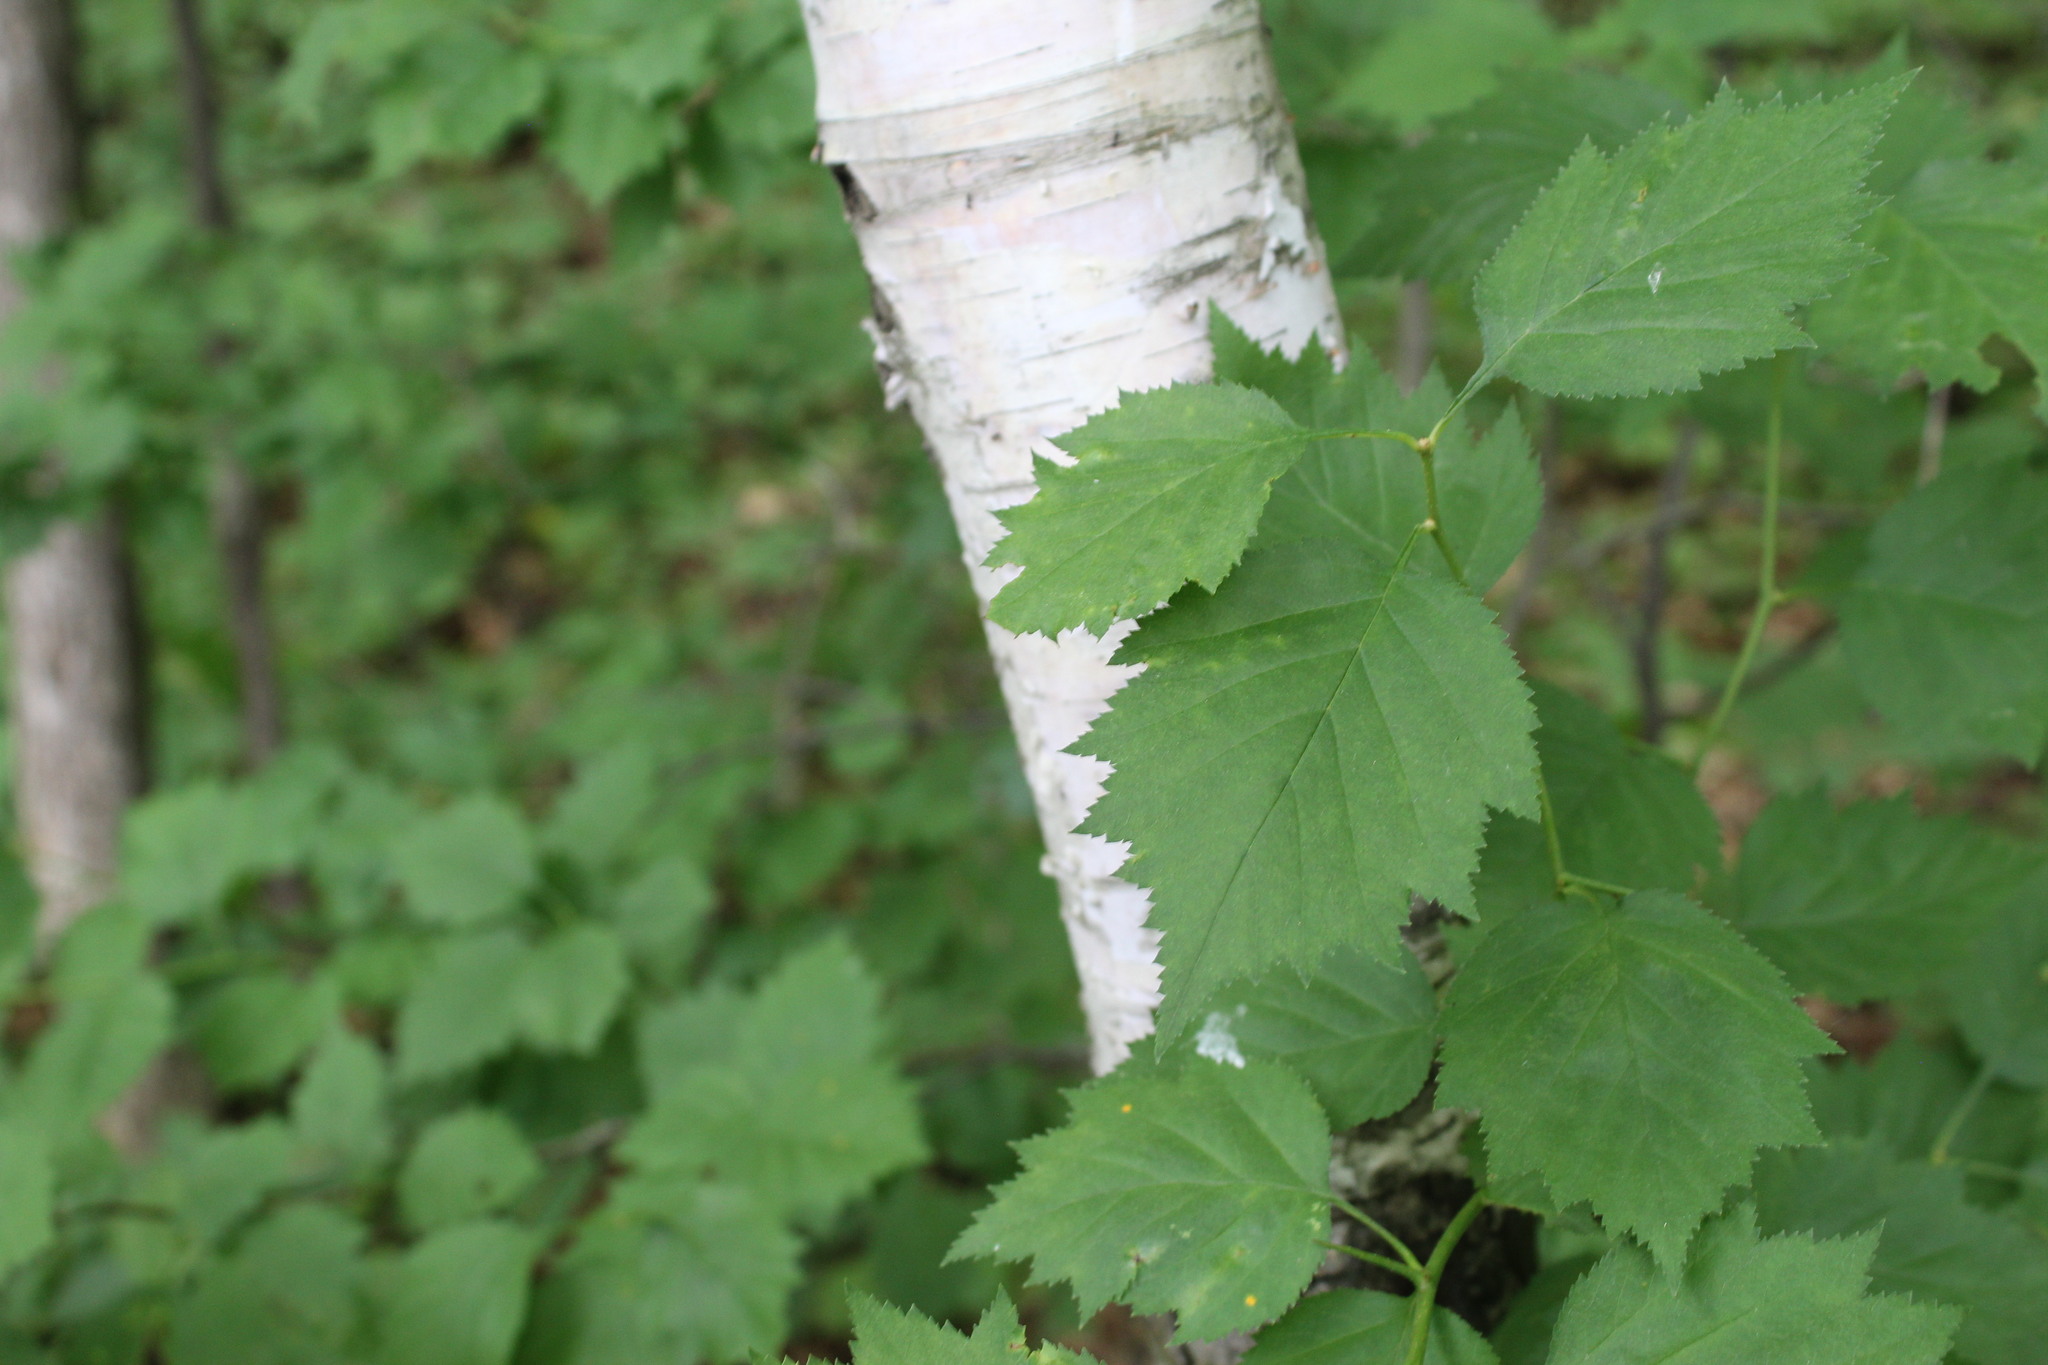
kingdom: Plantae
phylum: Tracheophyta
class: Magnoliopsida
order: Fagales
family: Betulaceae
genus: Betula
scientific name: Betula papyrifera
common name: Paper birch
